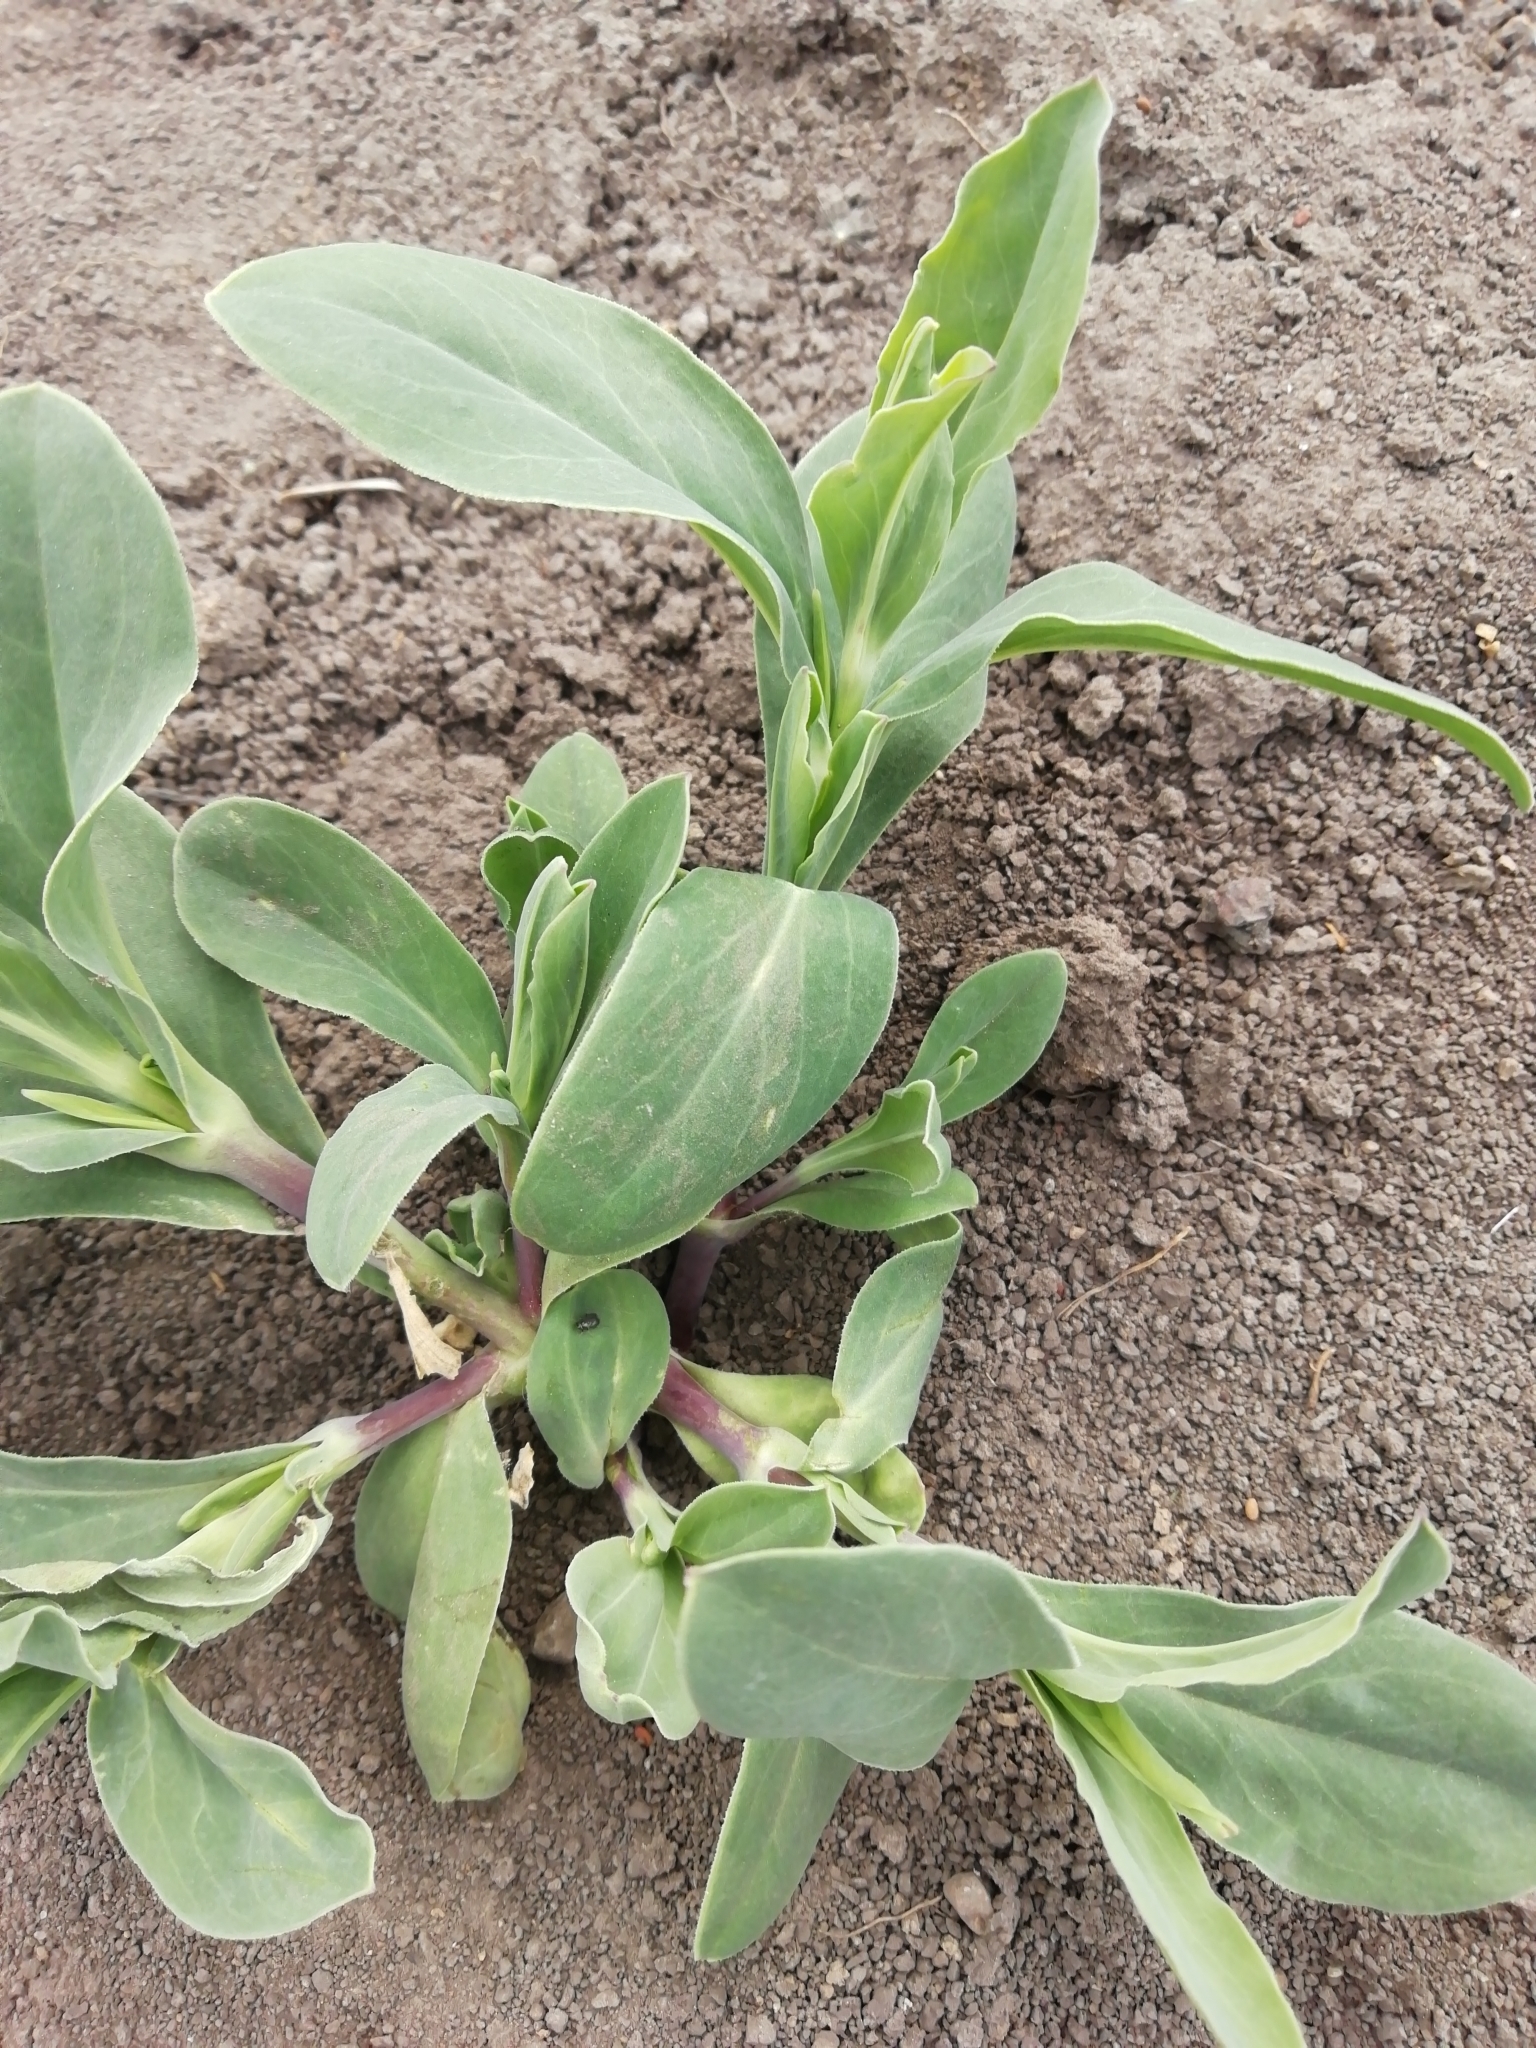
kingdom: Plantae
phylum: Tracheophyta
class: Magnoliopsida
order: Caryophyllales
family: Caryophyllaceae
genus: Silene
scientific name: Silene vulgaris
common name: Bladder campion
